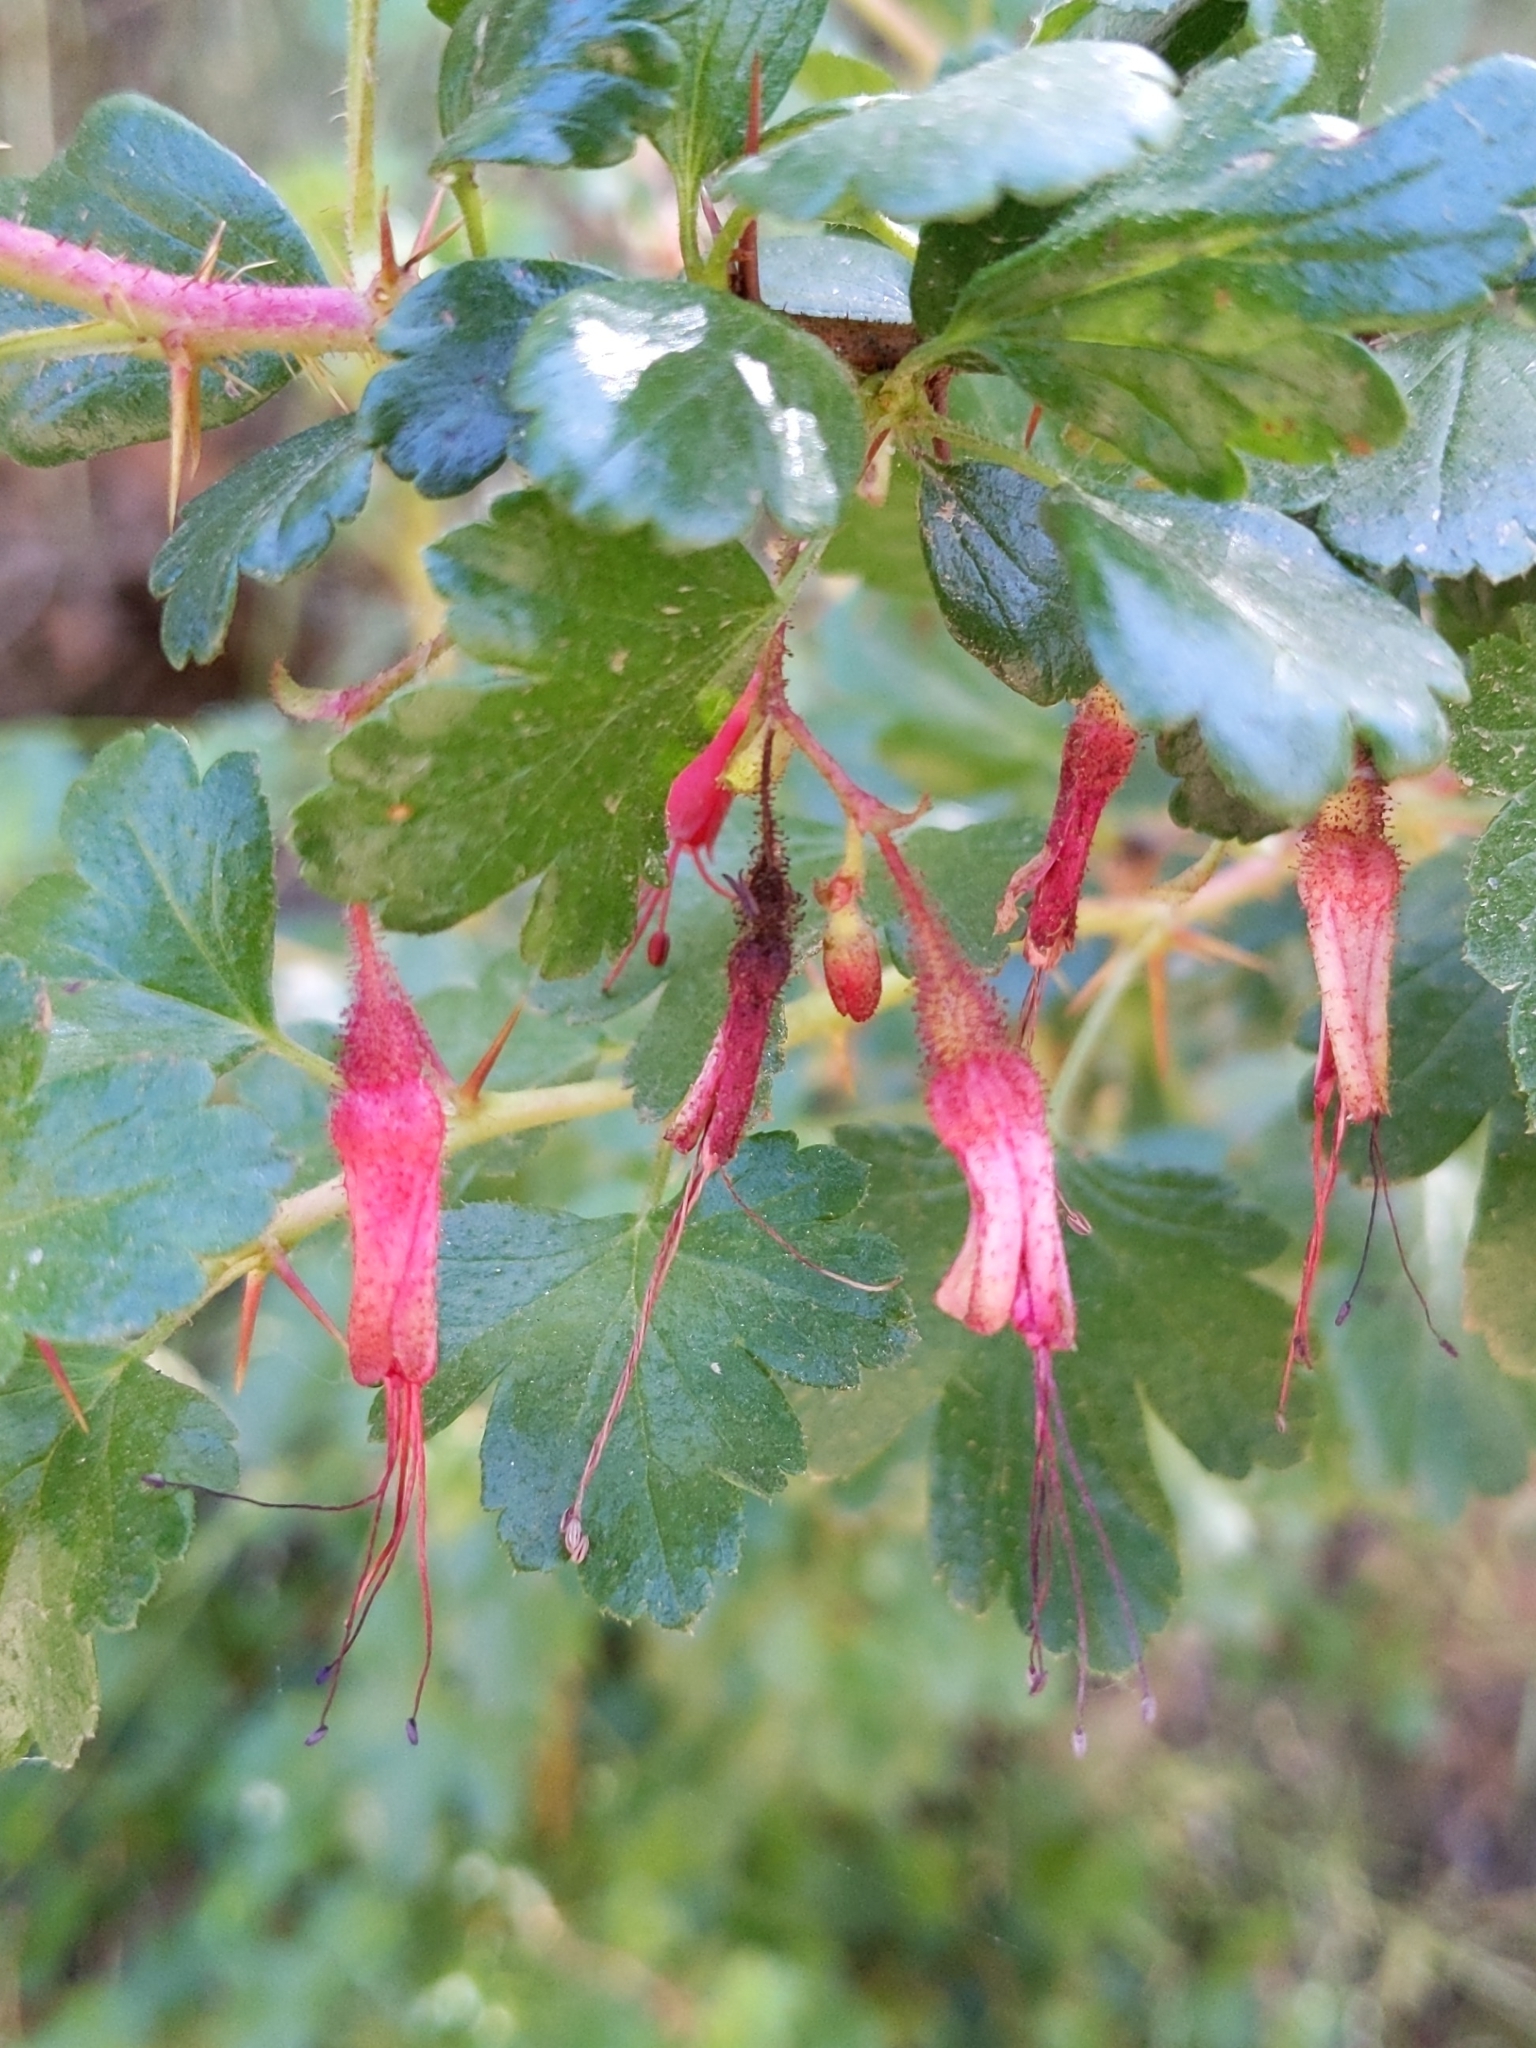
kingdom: Plantae
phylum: Tracheophyta
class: Magnoliopsida
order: Saxifragales
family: Grossulariaceae
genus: Ribes
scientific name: Ribes speciosum
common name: Fuchsia-flower gooseberry
